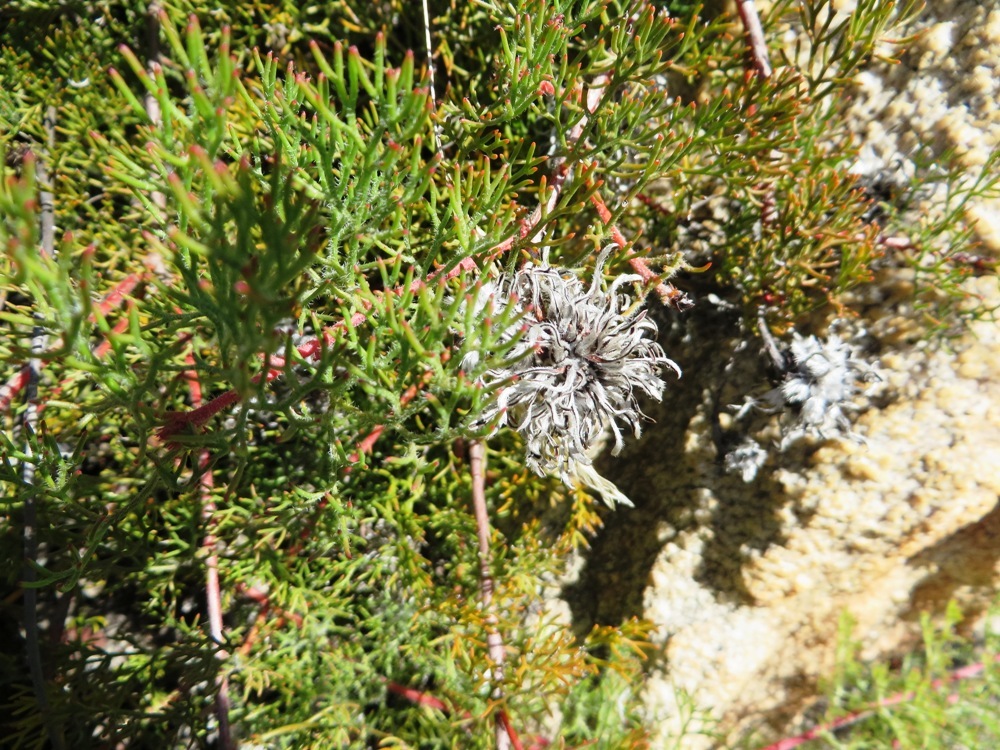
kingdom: Plantae
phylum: Tracheophyta
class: Magnoliopsida
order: Proteales
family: Proteaceae
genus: Serruria
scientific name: Serruria gremialis
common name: Riviersonderend spiderhead
